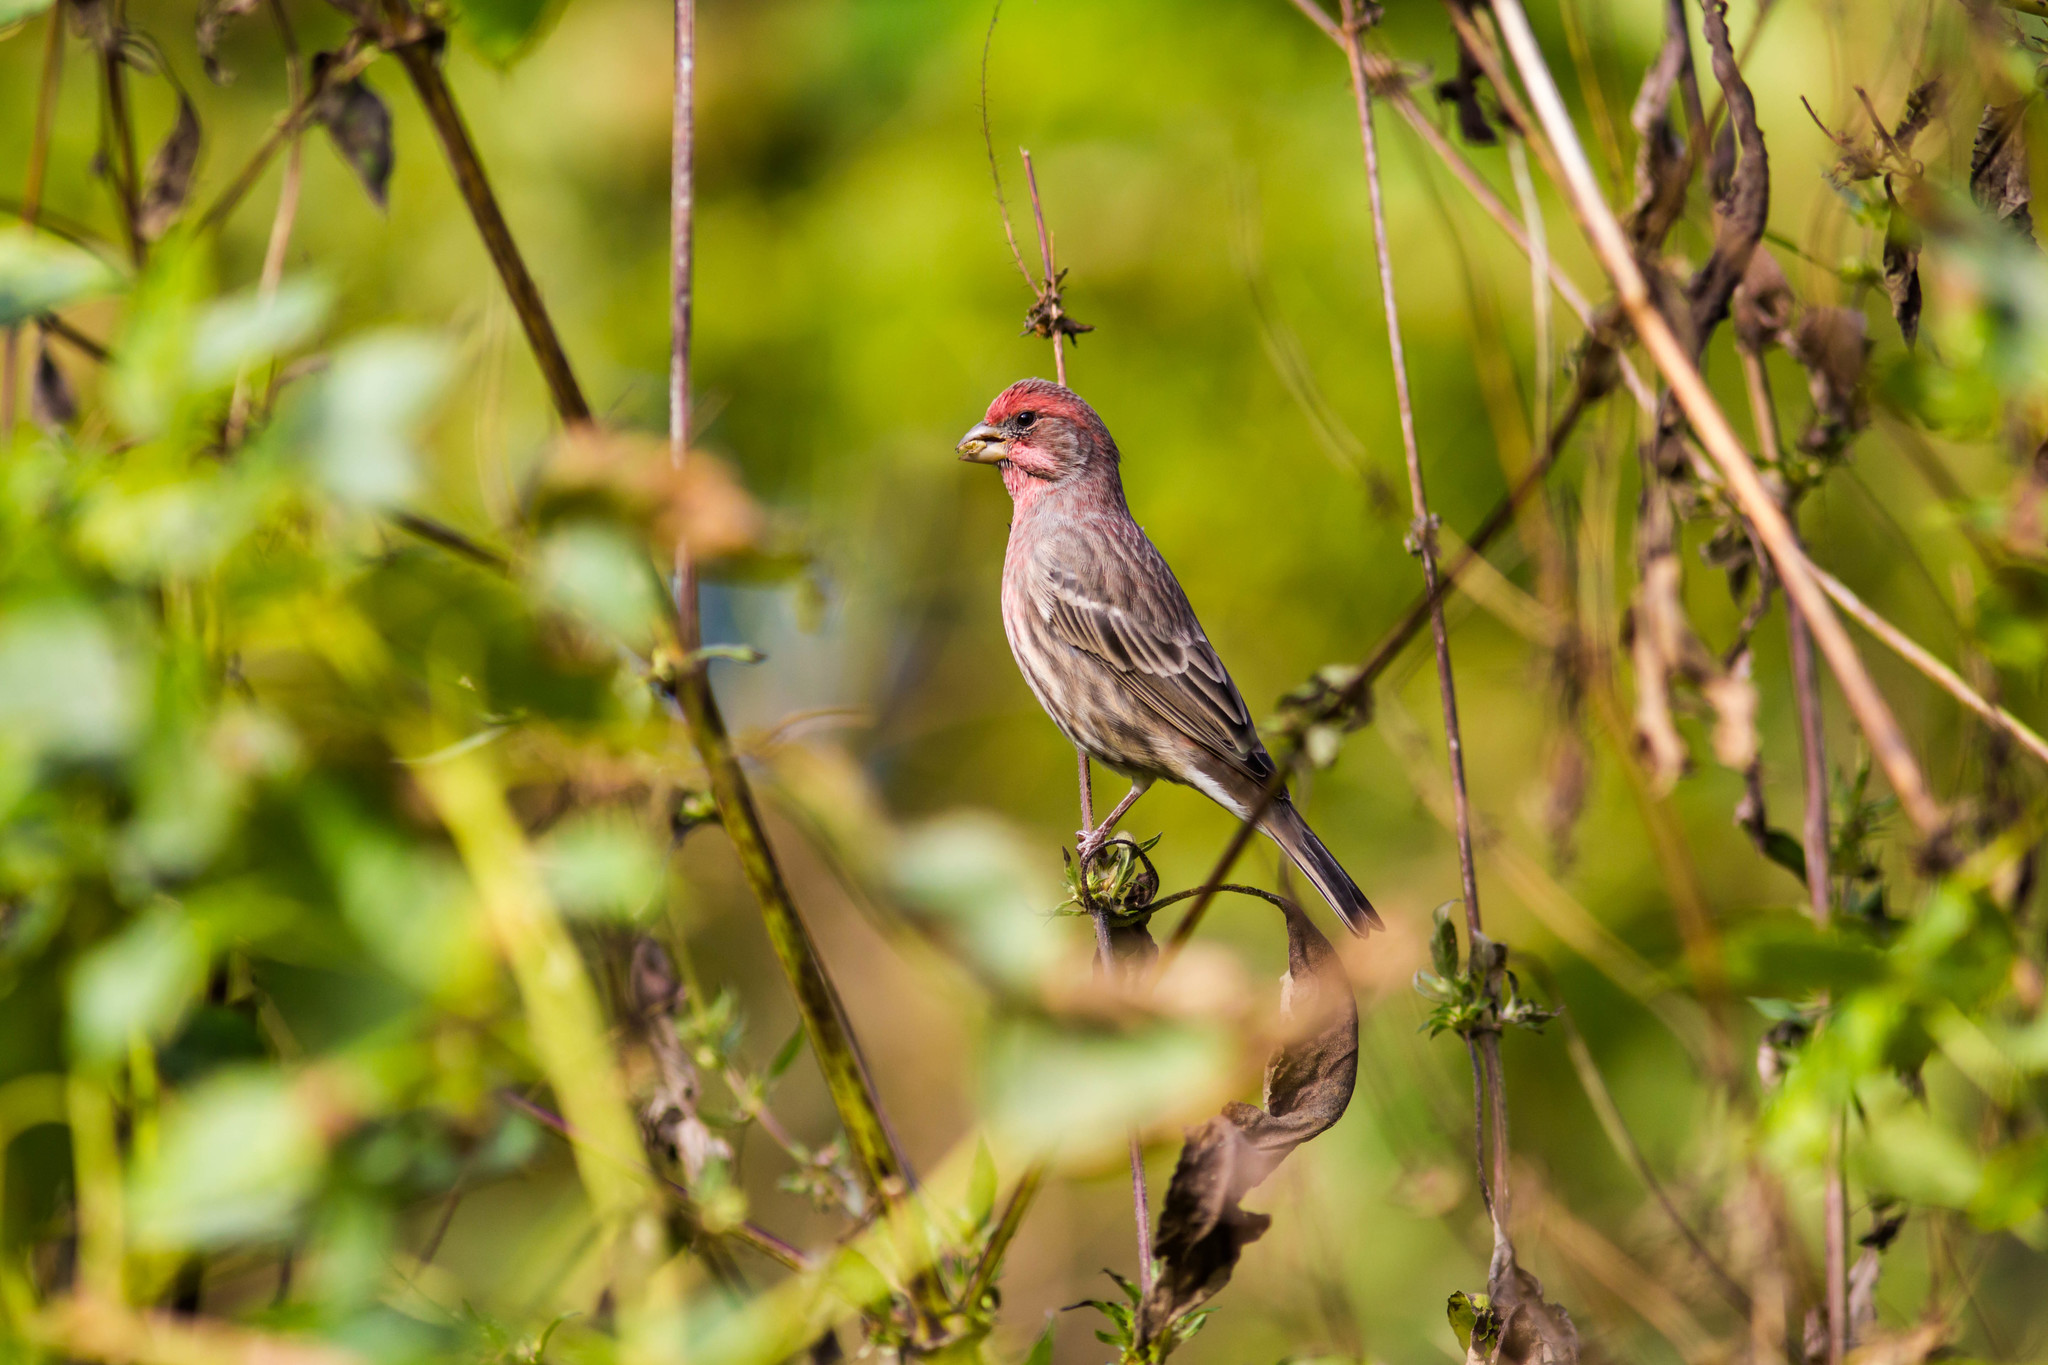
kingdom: Animalia
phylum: Chordata
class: Aves
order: Passeriformes
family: Fringillidae
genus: Haemorhous
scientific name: Haemorhous mexicanus
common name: House finch
